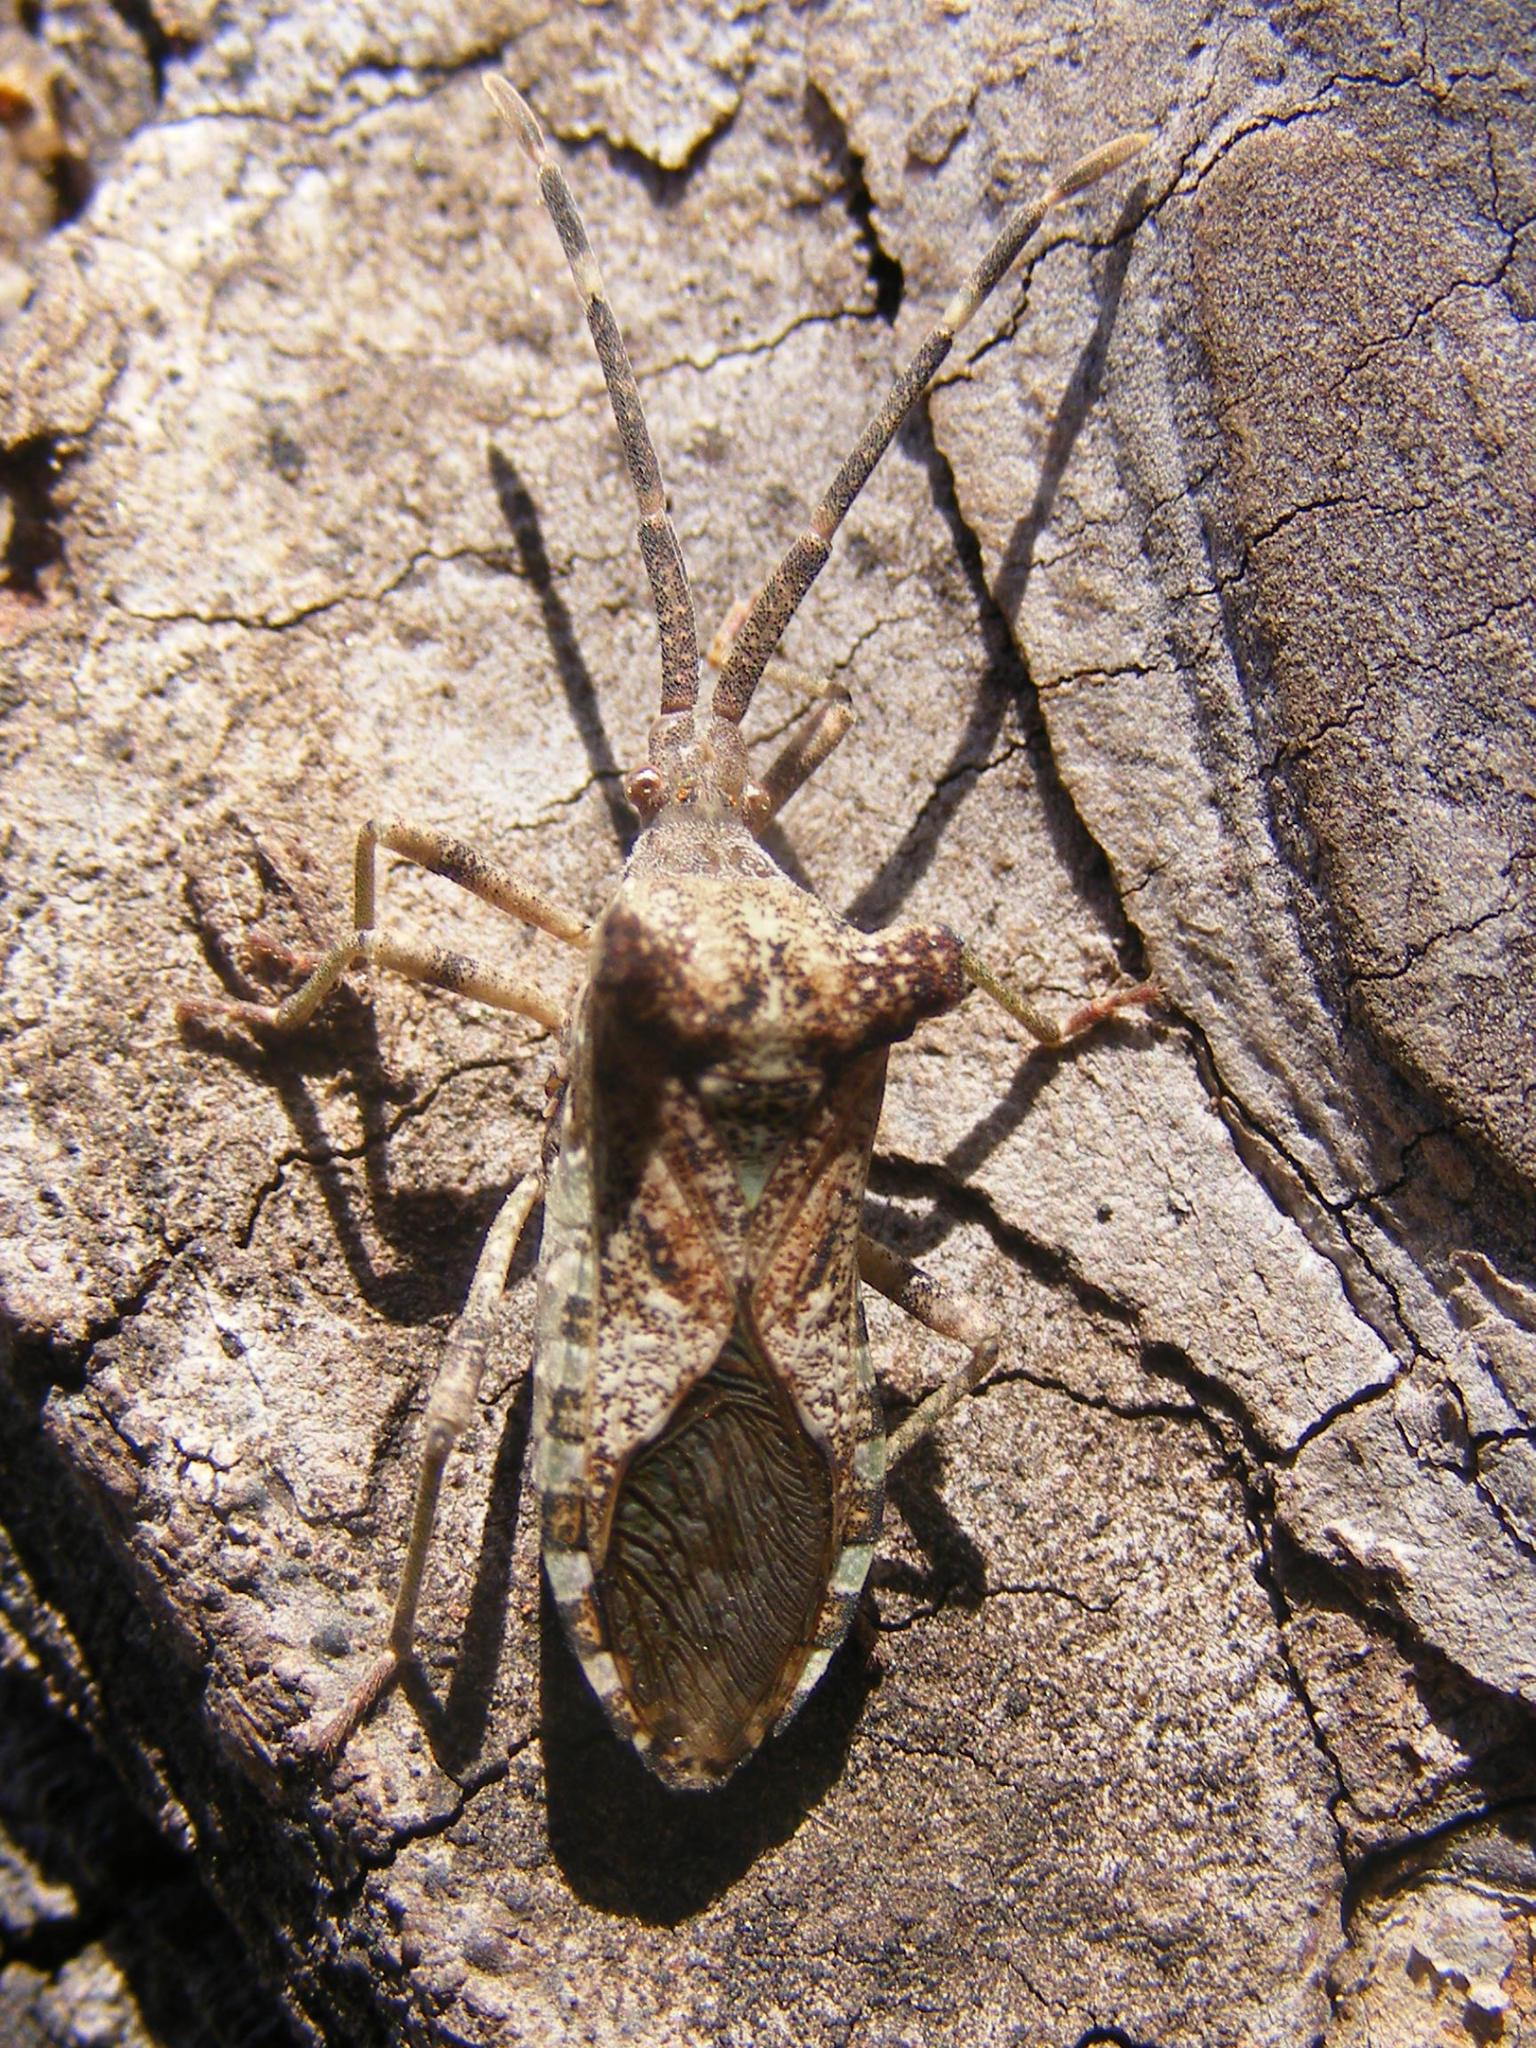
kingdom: Animalia
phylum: Arthropoda
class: Insecta
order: Hemiptera
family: Coreidae
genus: Prismatocerus
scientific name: Prismatocerus auriculatus
